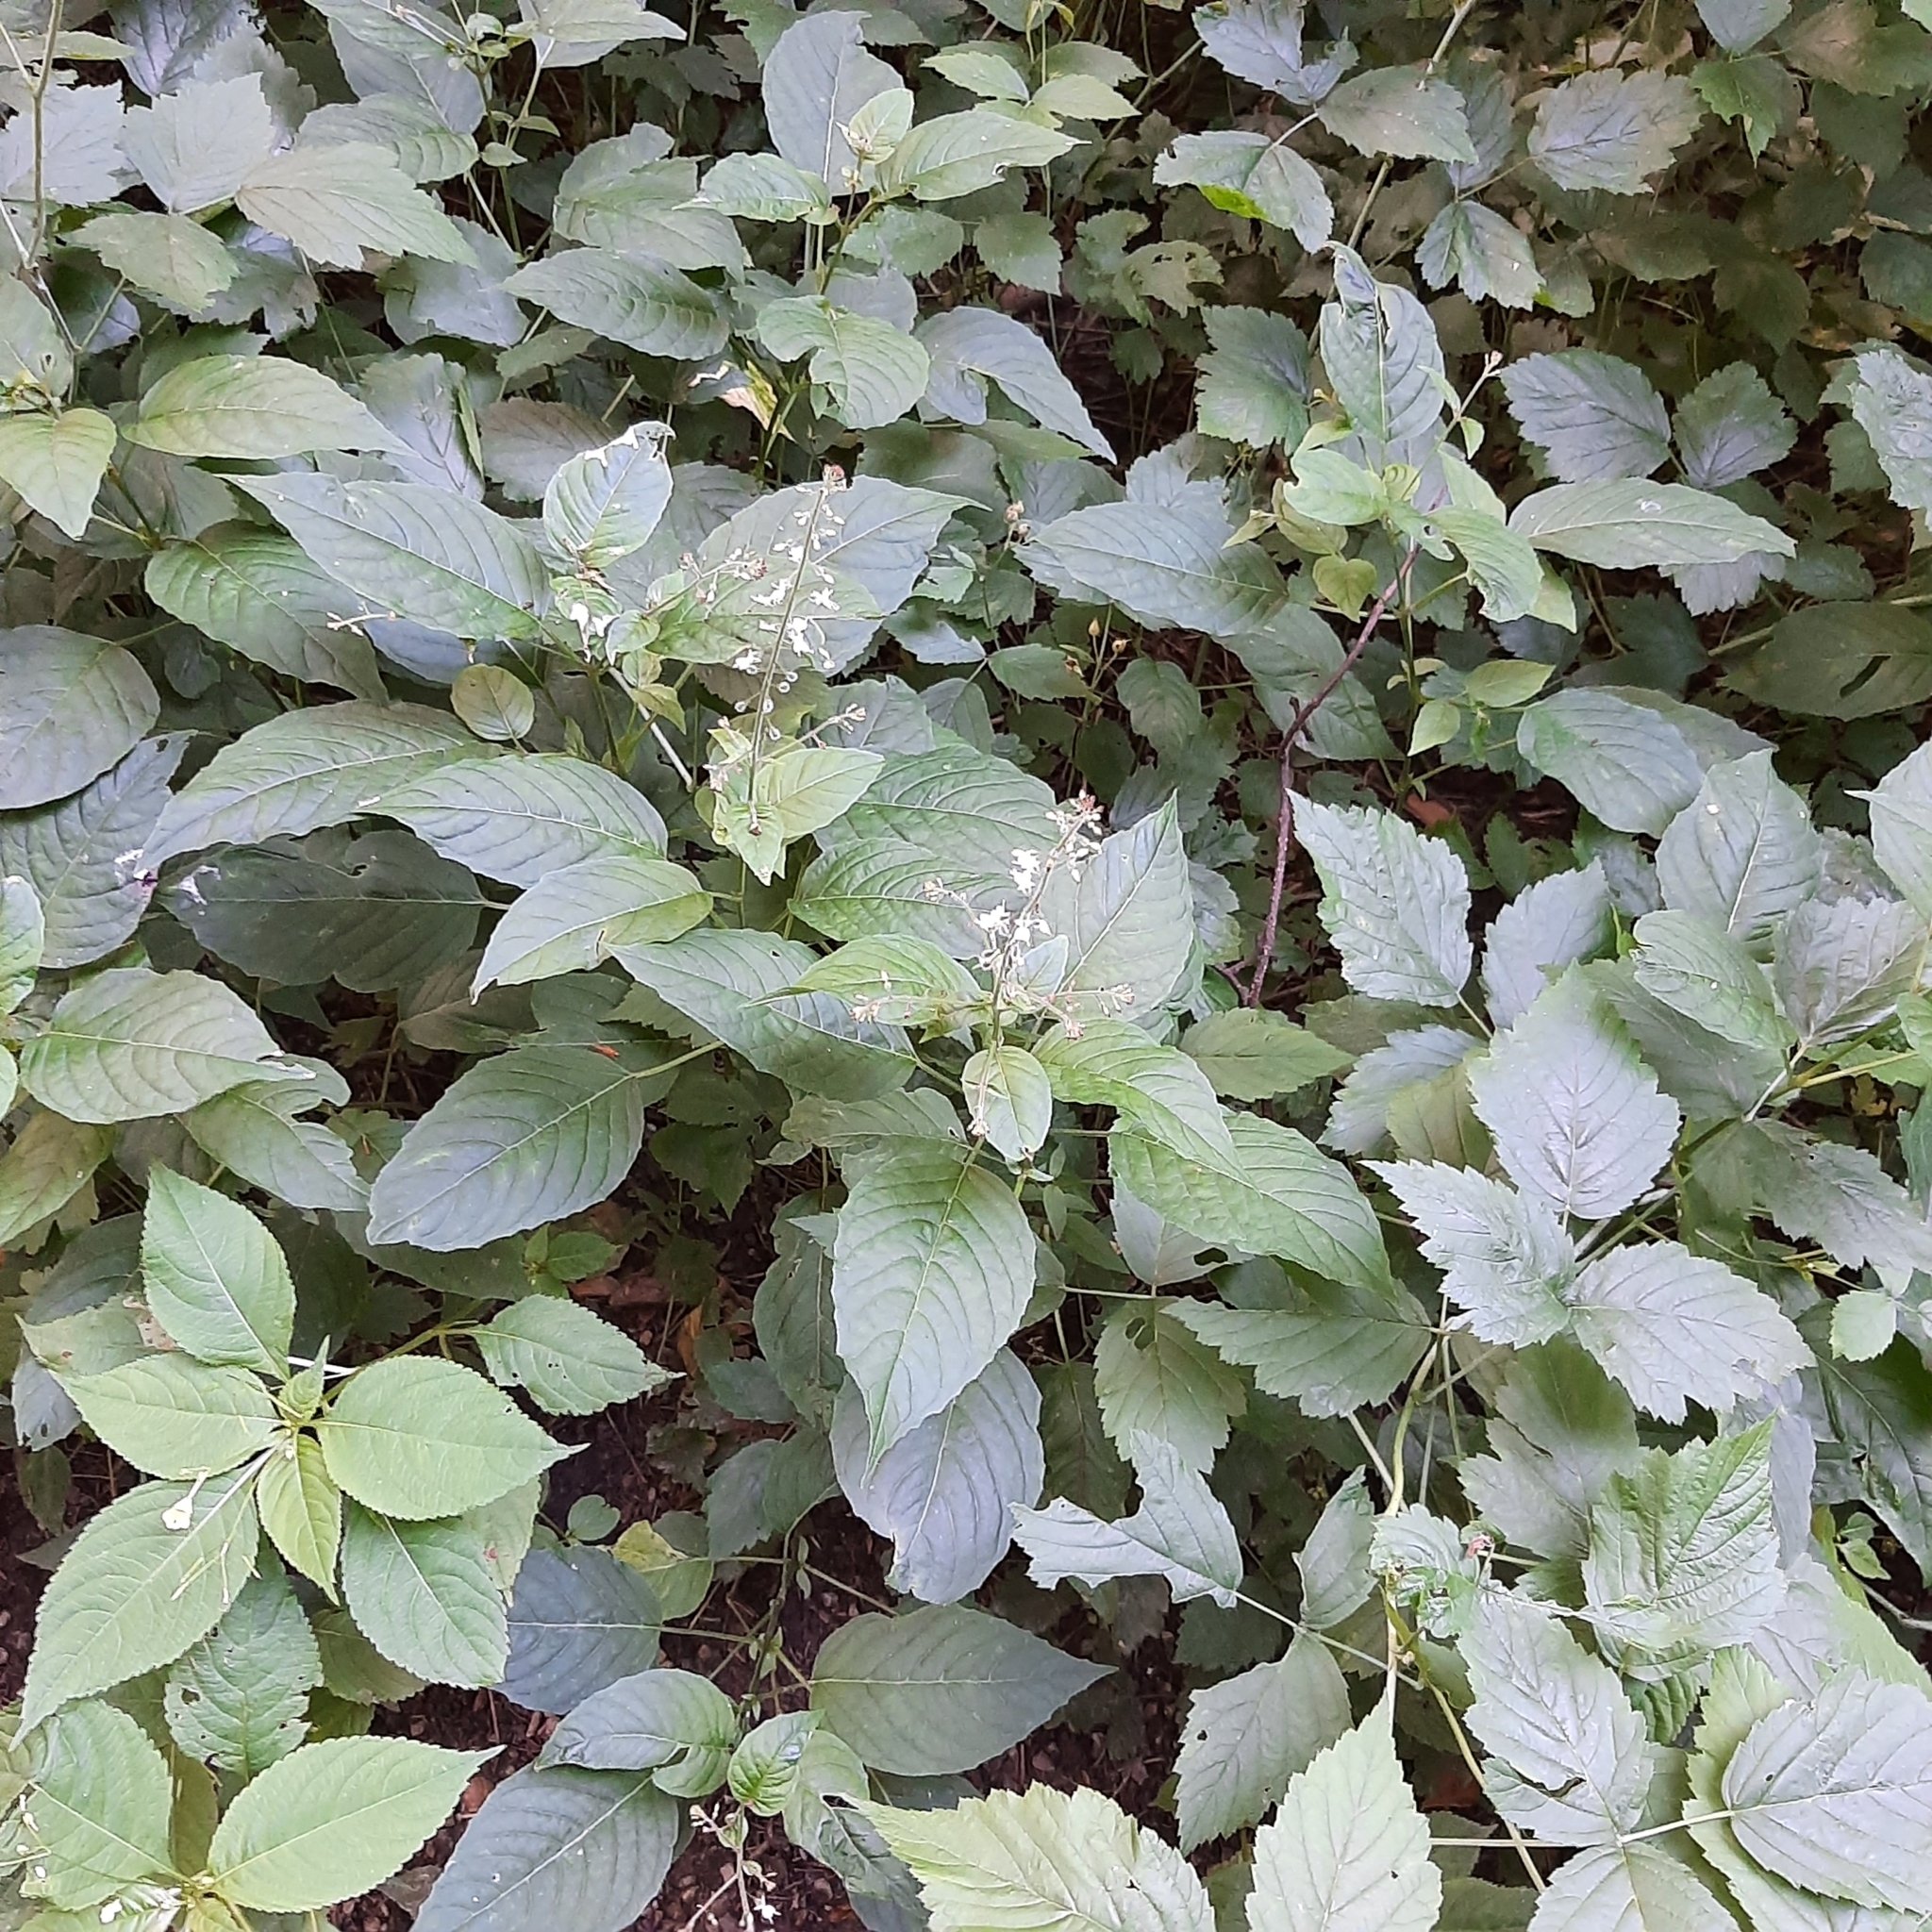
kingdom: Plantae
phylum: Tracheophyta
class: Magnoliopsida
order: Myrtales
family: Onagraceae
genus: Circaea
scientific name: Circaea lutetiana
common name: Enchanter's-nightshade
